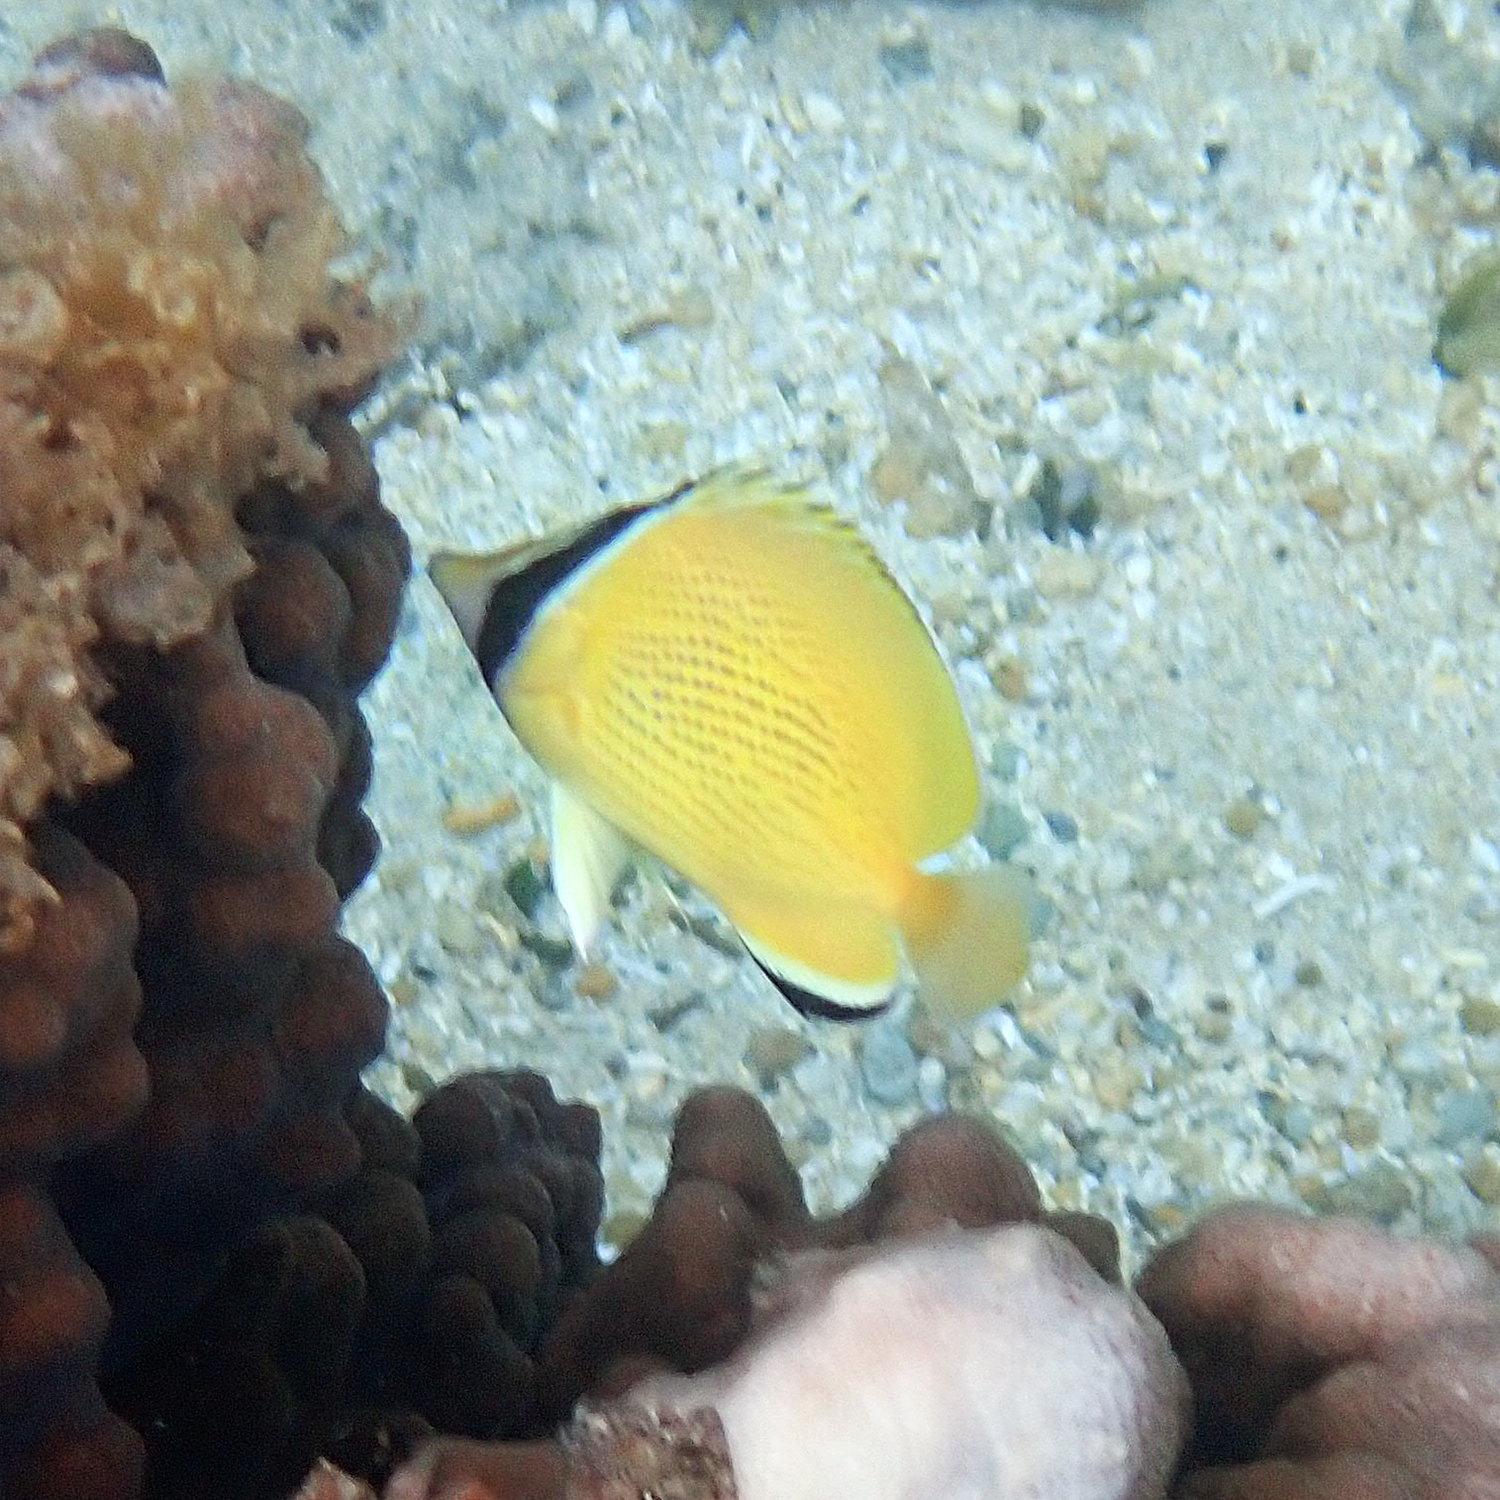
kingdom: Animalia
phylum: Chordata
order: Perciformes
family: Chaetodontidae
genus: Chaetodon
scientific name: Chaetodon citrinellus
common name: Speckled butterflyfish
